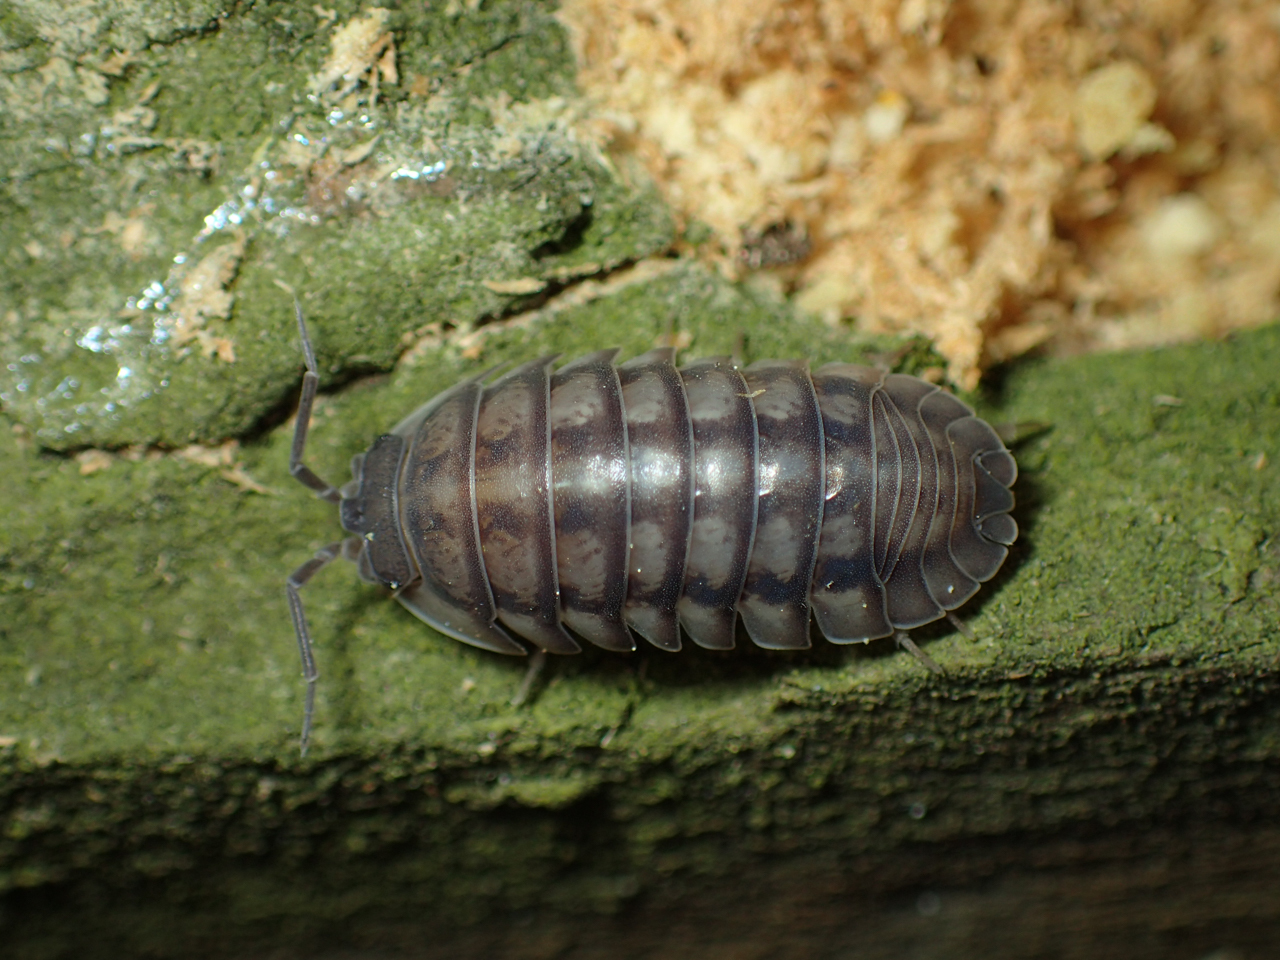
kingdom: Animalia
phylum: Arthropoda
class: Malacostraca
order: Isopoda
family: Armadillidiidae
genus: Armadillidium
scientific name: Armadillidium nasatum
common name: Isopod
